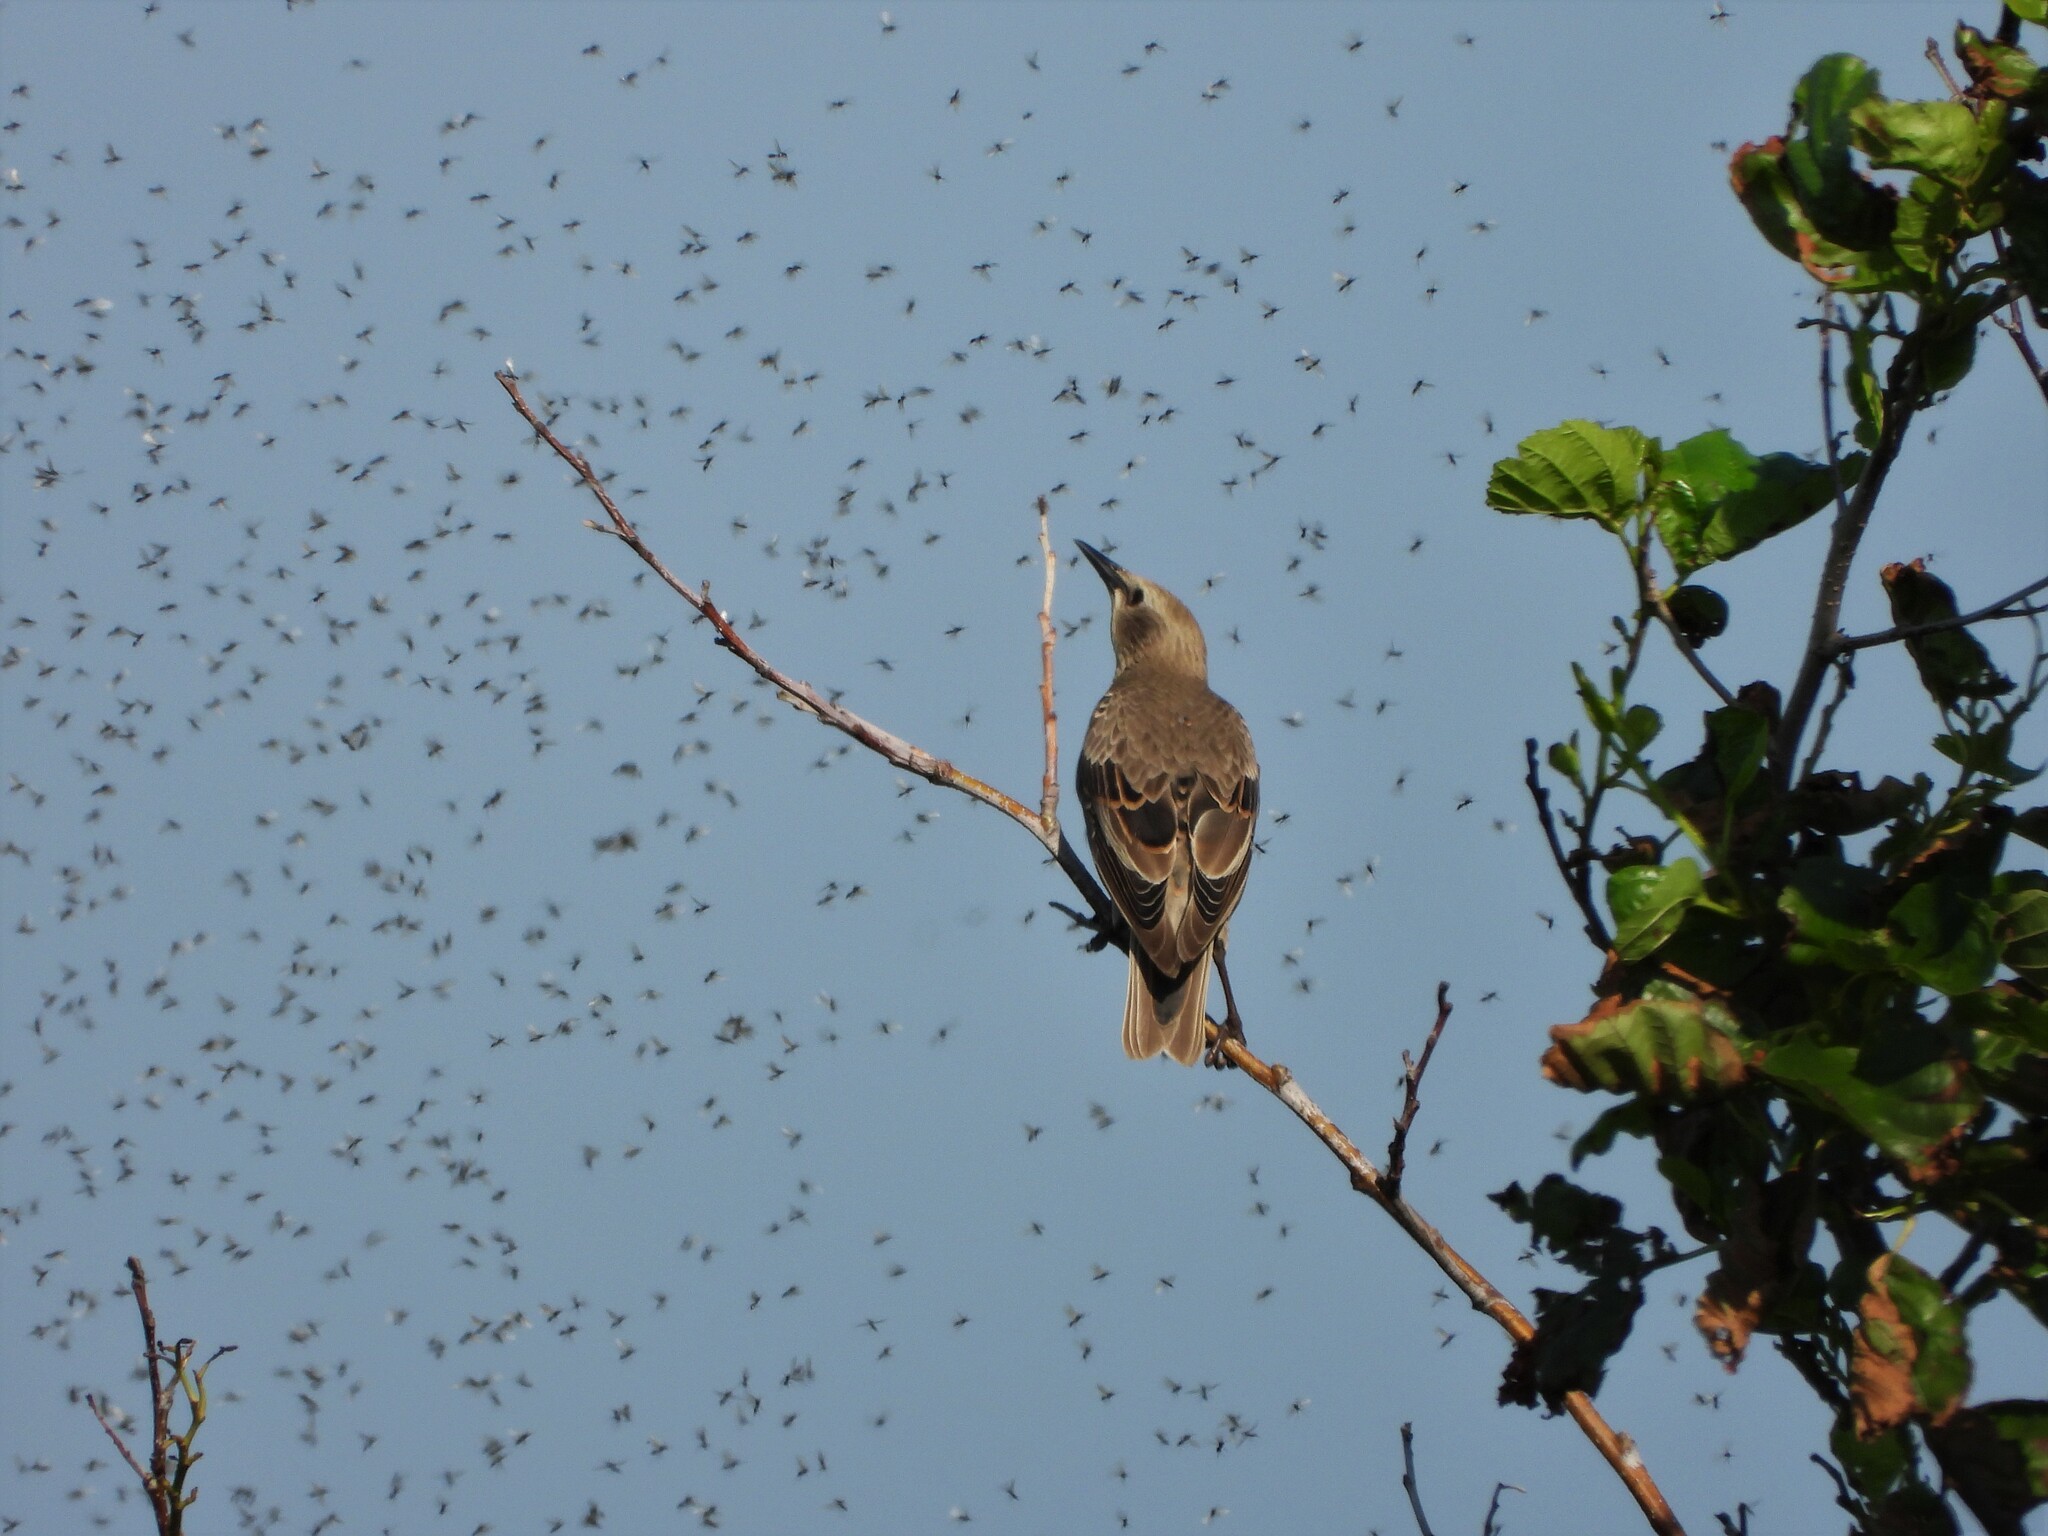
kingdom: Animalia
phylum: Chordata
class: Aves
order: Passeriformes
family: Sturnidae
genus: Sturnus
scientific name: Sturnus vulgaris
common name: Common starling
